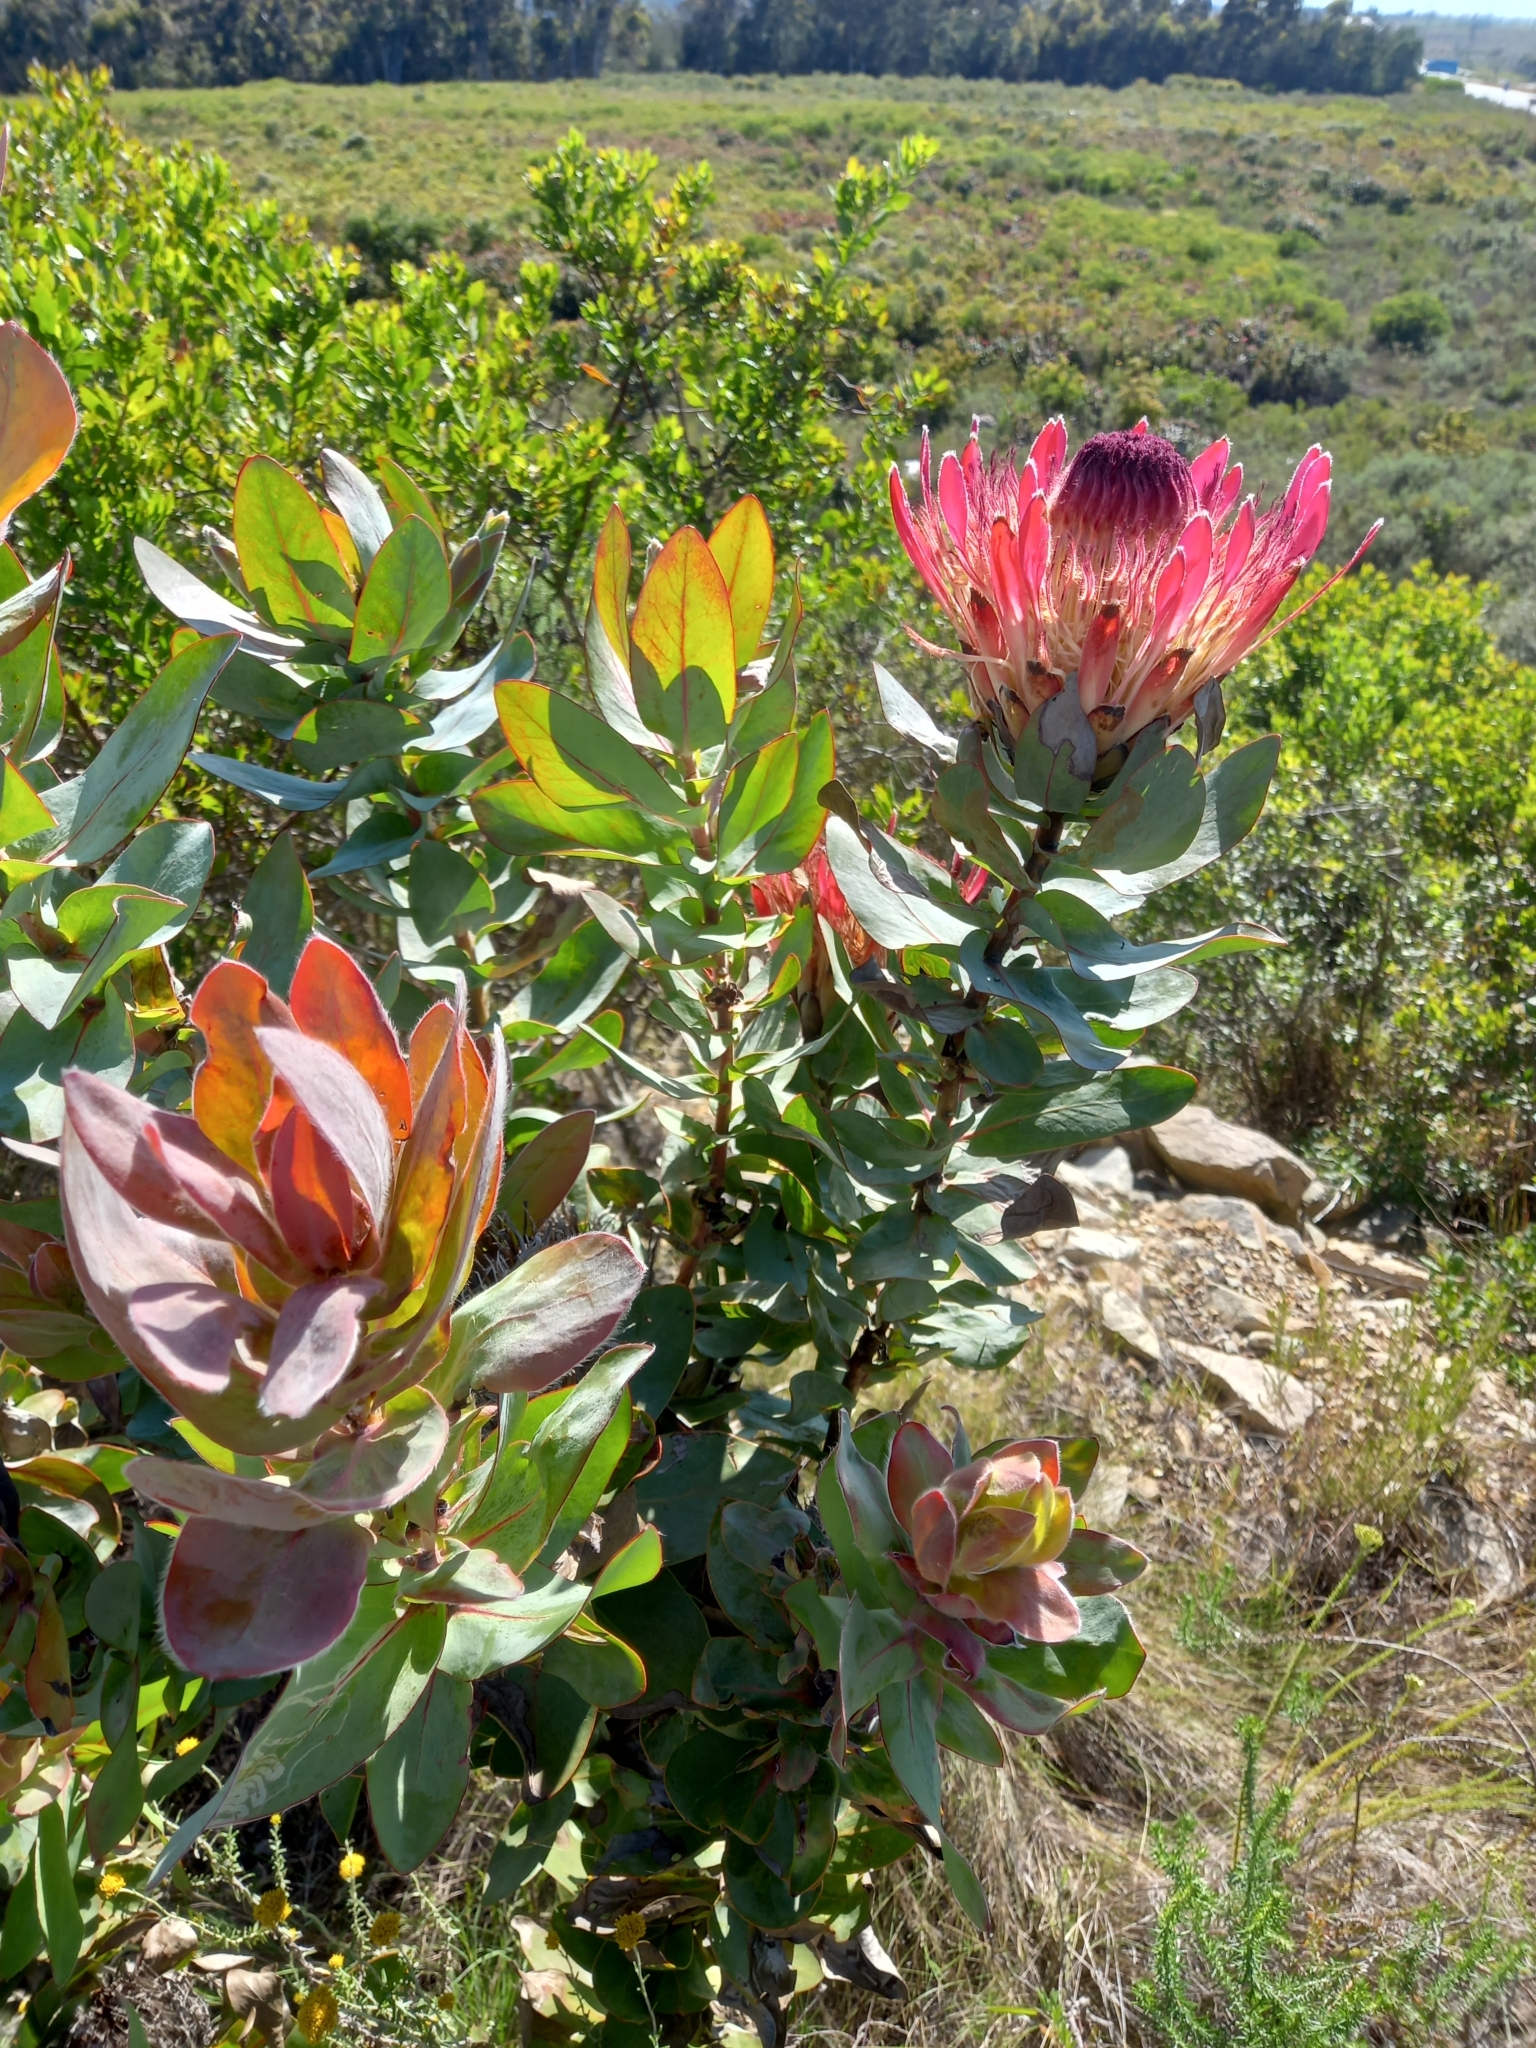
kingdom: Plantae
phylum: Tracheophyta
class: Magnoliopsida
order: Proteales
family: Proteaceae
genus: Protea
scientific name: Protea eximia
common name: Broad-leaved sugarbush
